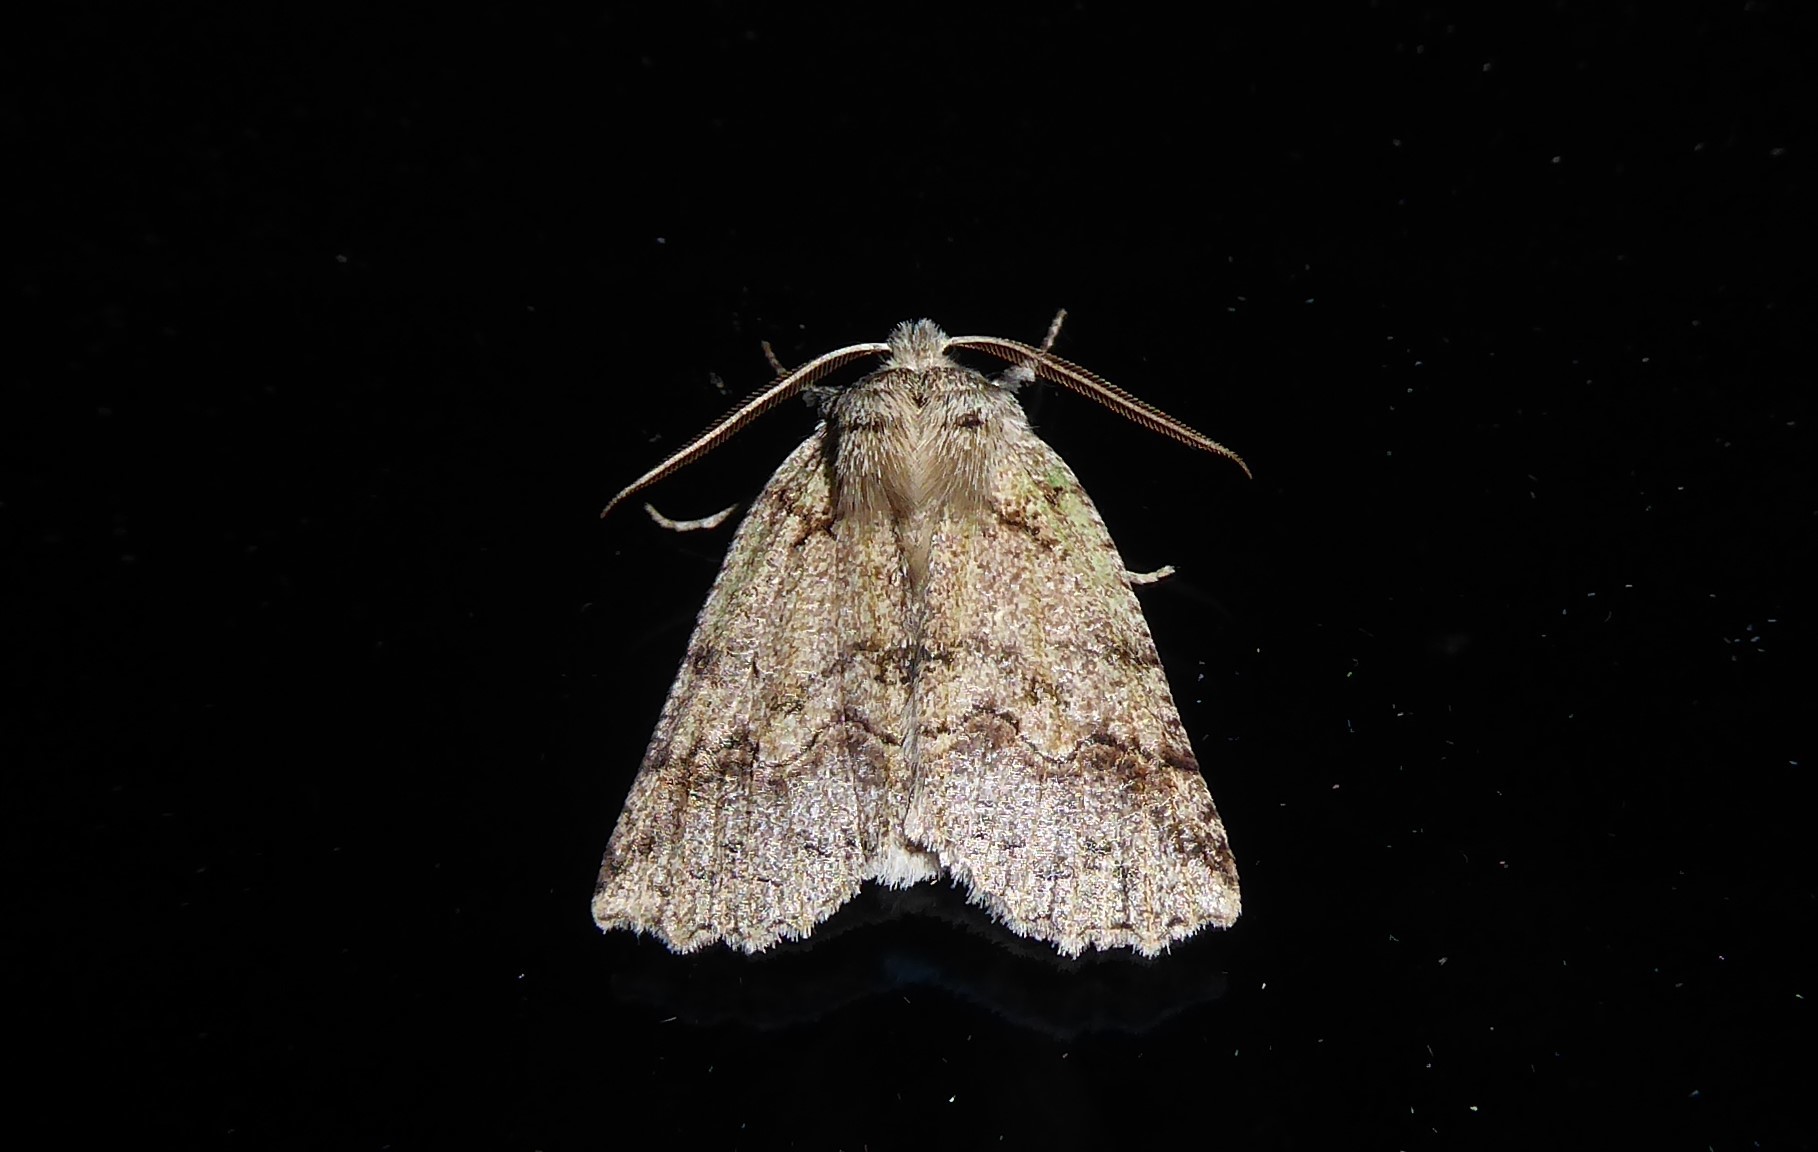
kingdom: Animalia
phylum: Arthropoda
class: Insecta
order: Lepidoptera
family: Geometridae
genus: Declana
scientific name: Declana floccosa
